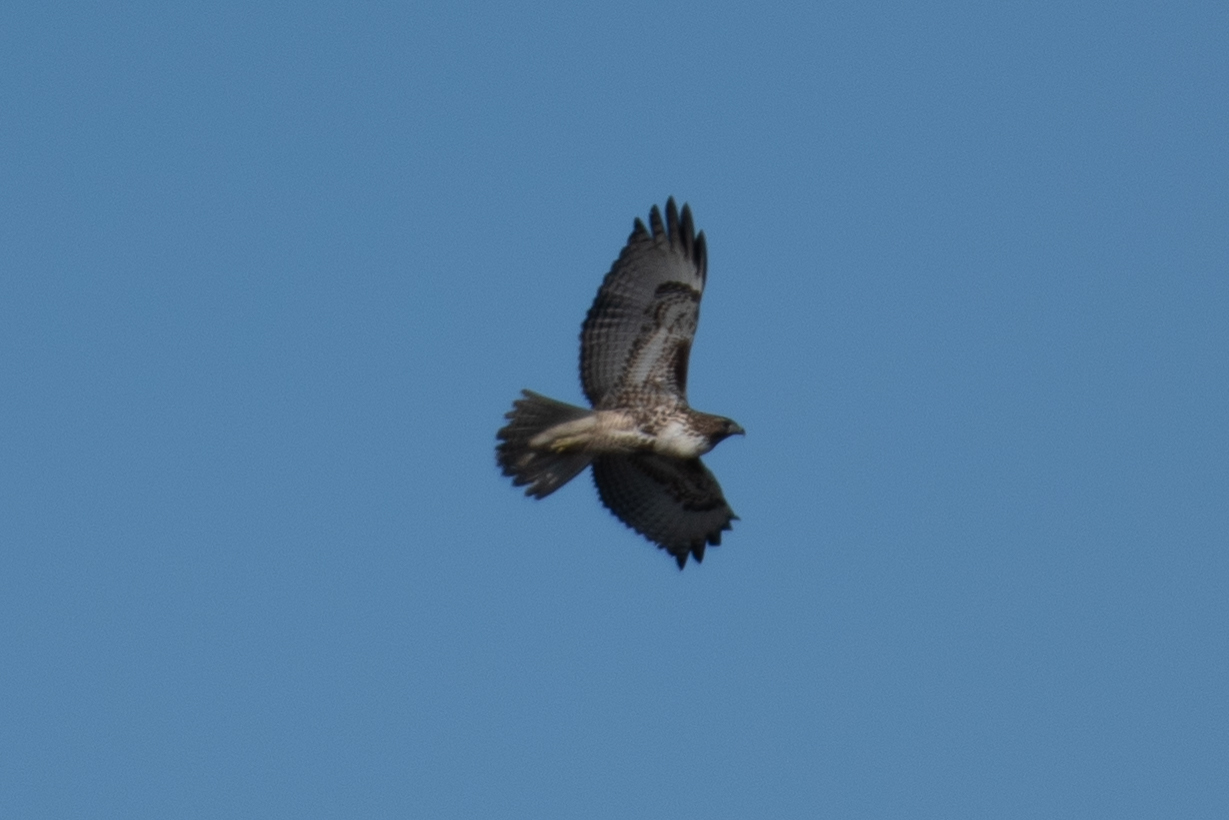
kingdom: Animalia
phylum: Chordata
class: Aves
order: Accipitriformes
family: Accipitridae
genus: Buteo
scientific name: Buteo jamaicensis
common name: Red-tailed hawk
